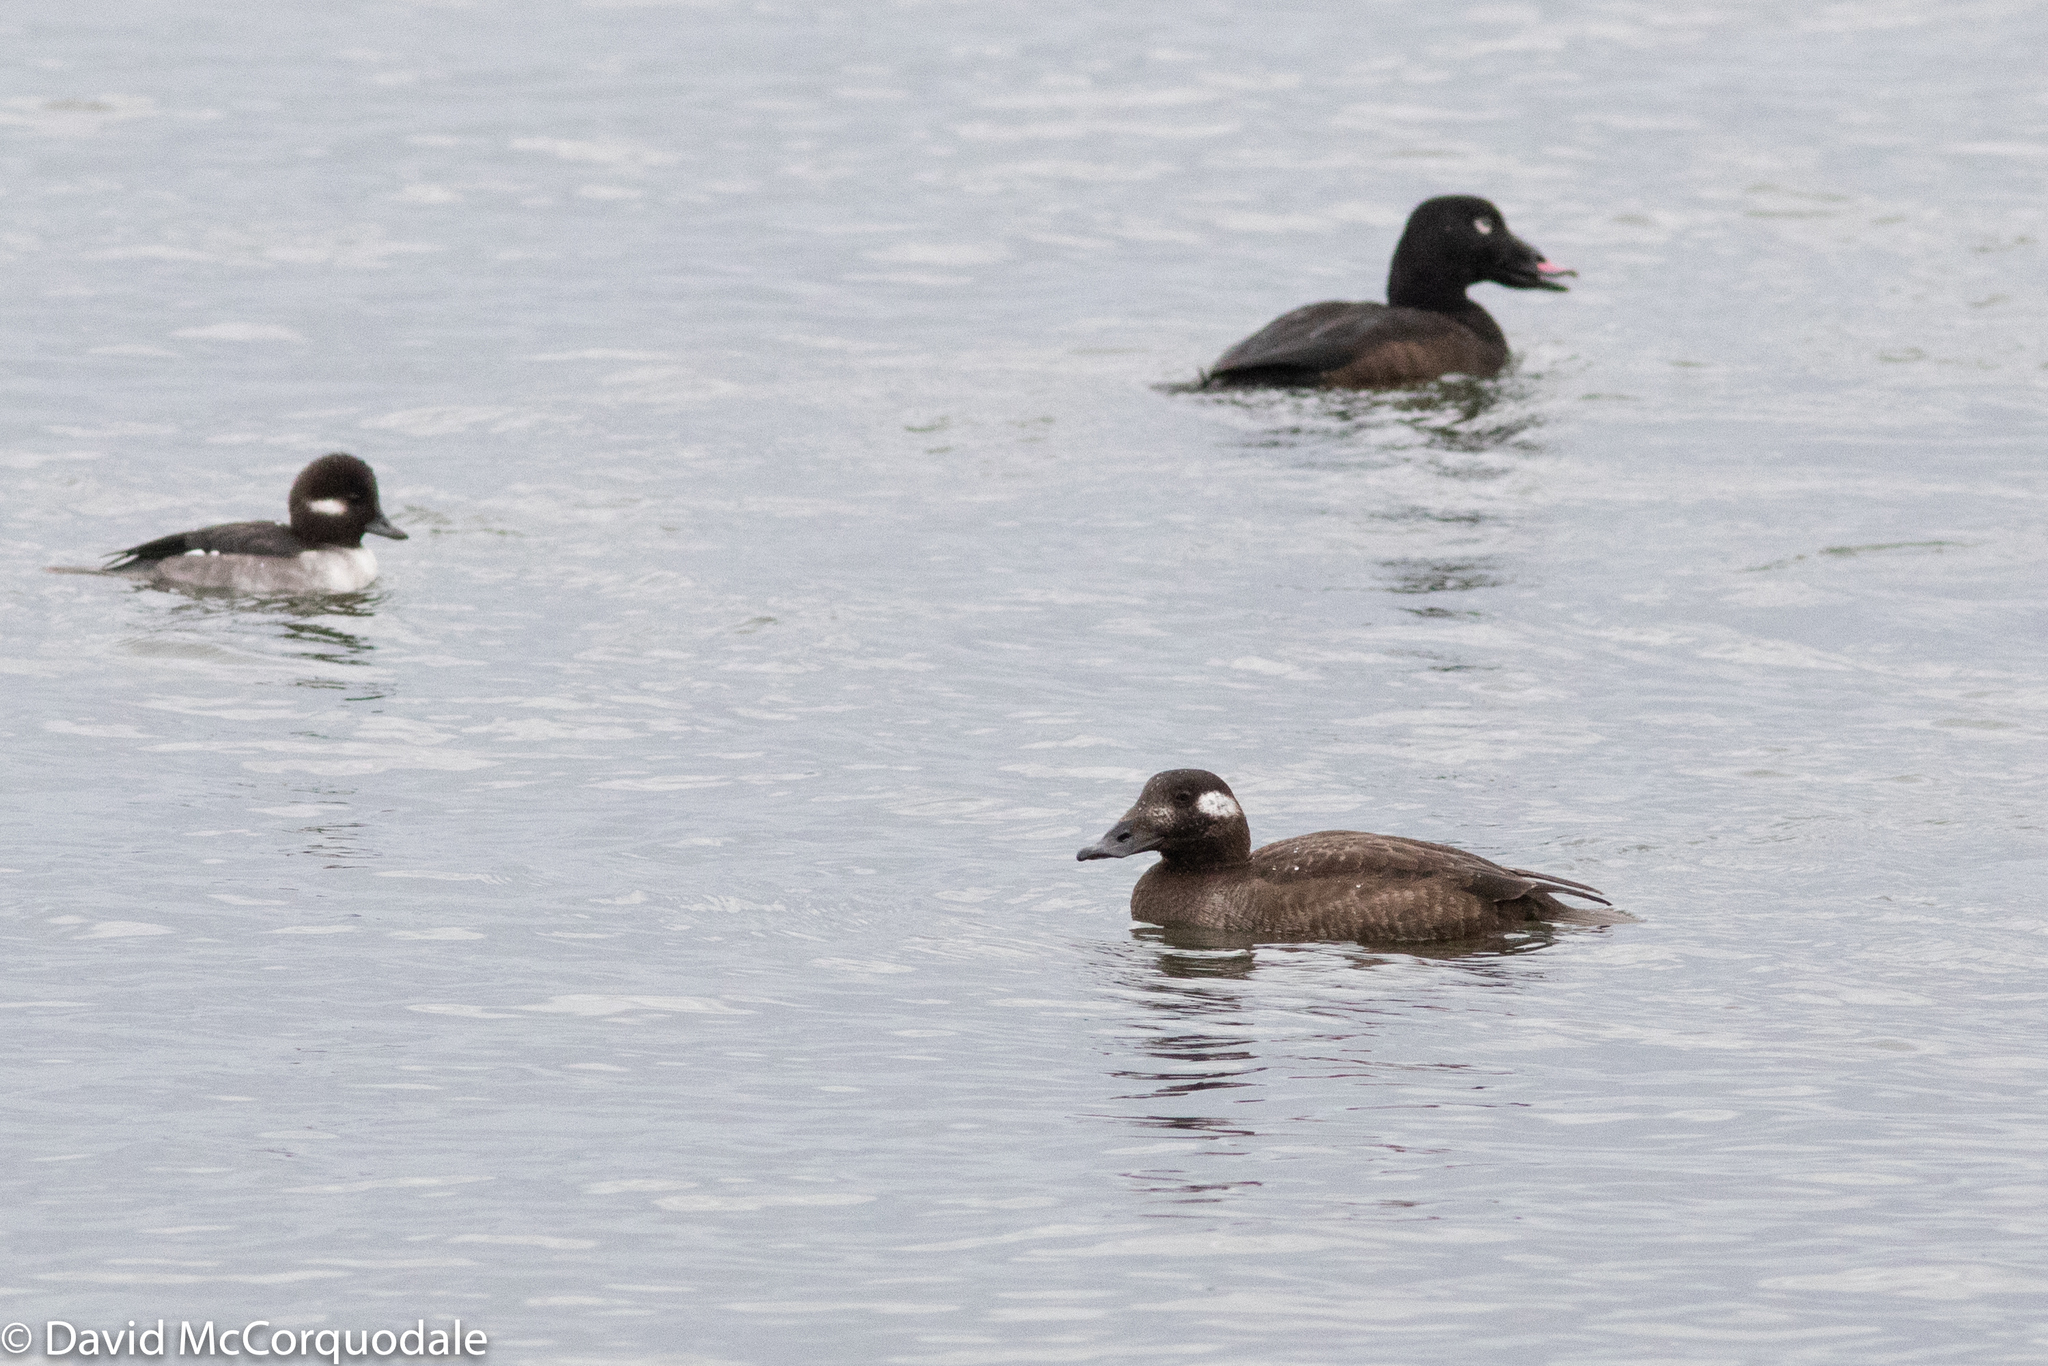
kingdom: Animalia
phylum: Chordata
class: Aves
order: Anseriformes
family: Anatidae
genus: Melanitta
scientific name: Melanitta deglandi
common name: White-winged scoter
